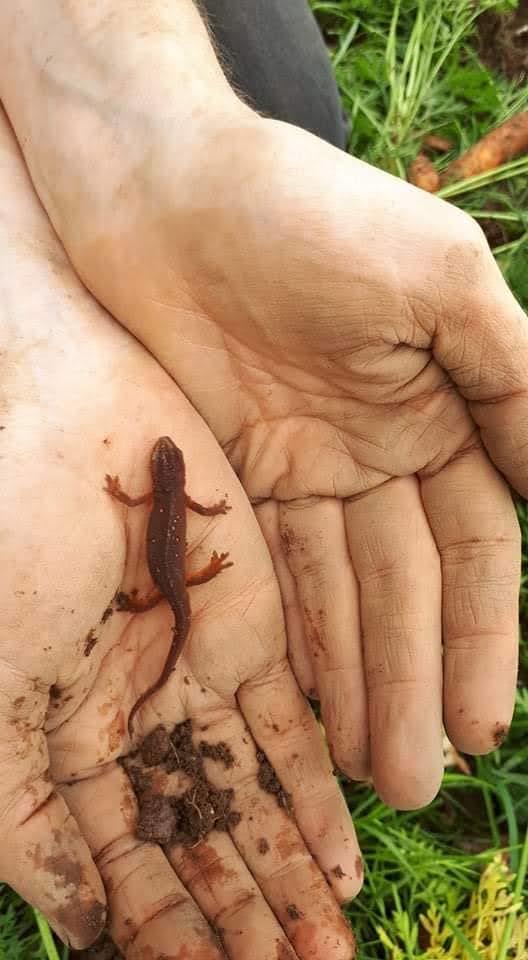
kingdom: Animalia
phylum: Chordata
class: Amphibia
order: Caudata
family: Salamandridae
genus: Notophthalmus
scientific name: Notophthalmus viridescens
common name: Eastern newt
